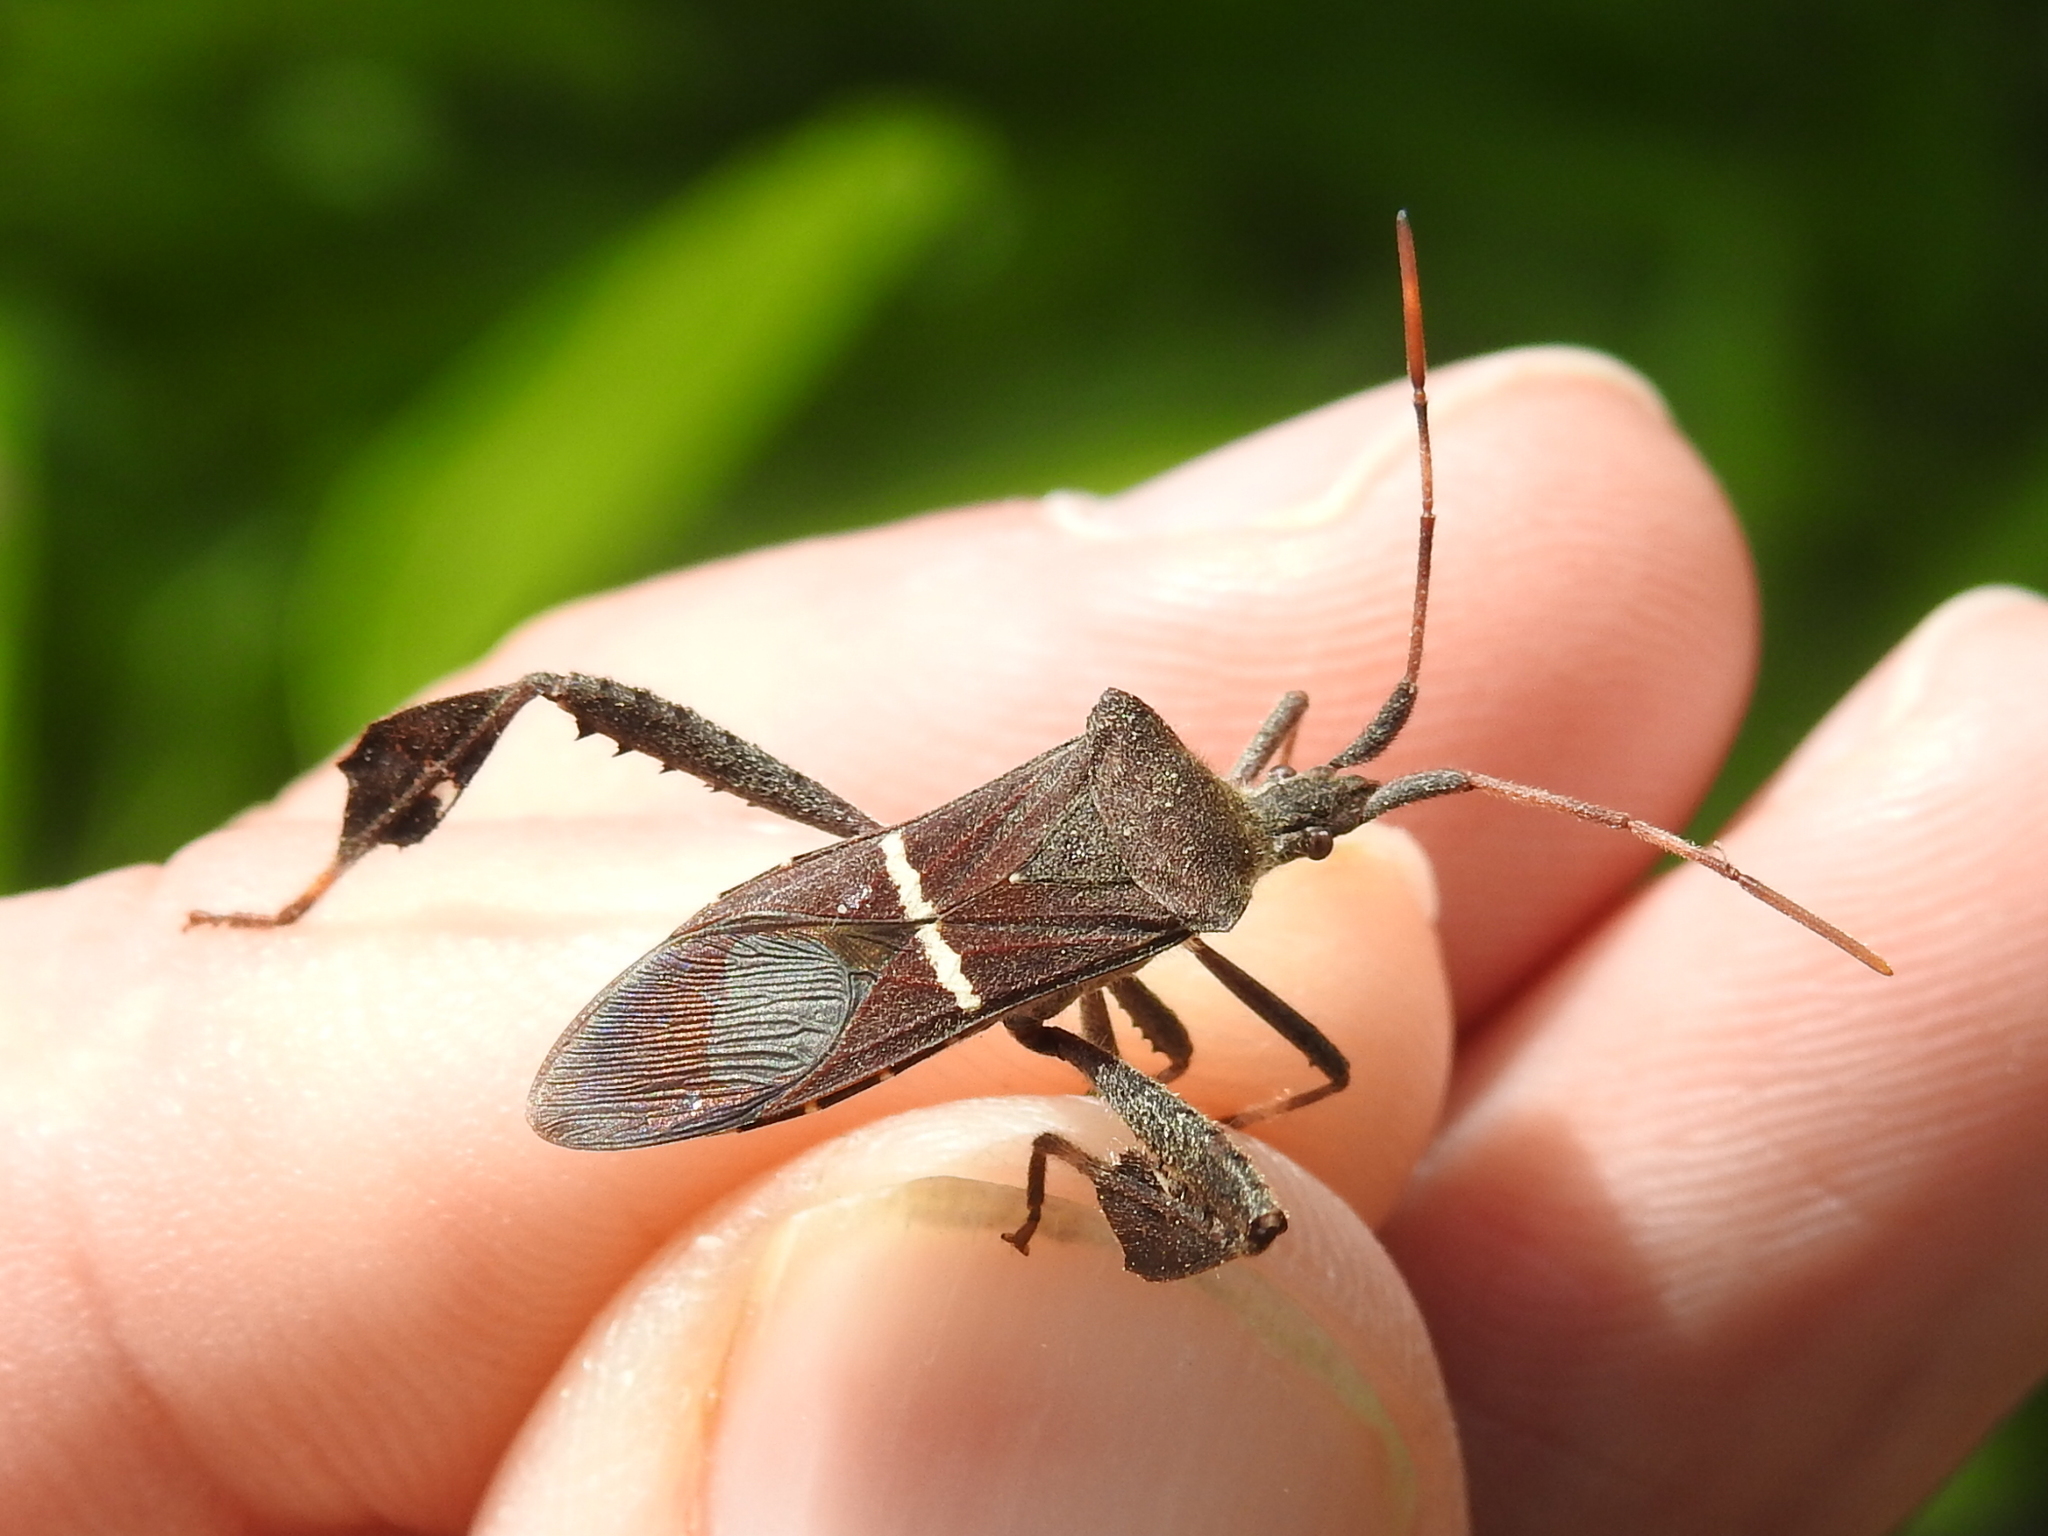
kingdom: Animalia
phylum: Arthropoda
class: Insecta
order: Hemiptera
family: Coreidae
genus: Leptoglossus
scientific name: Leptoglossus phyllopus
